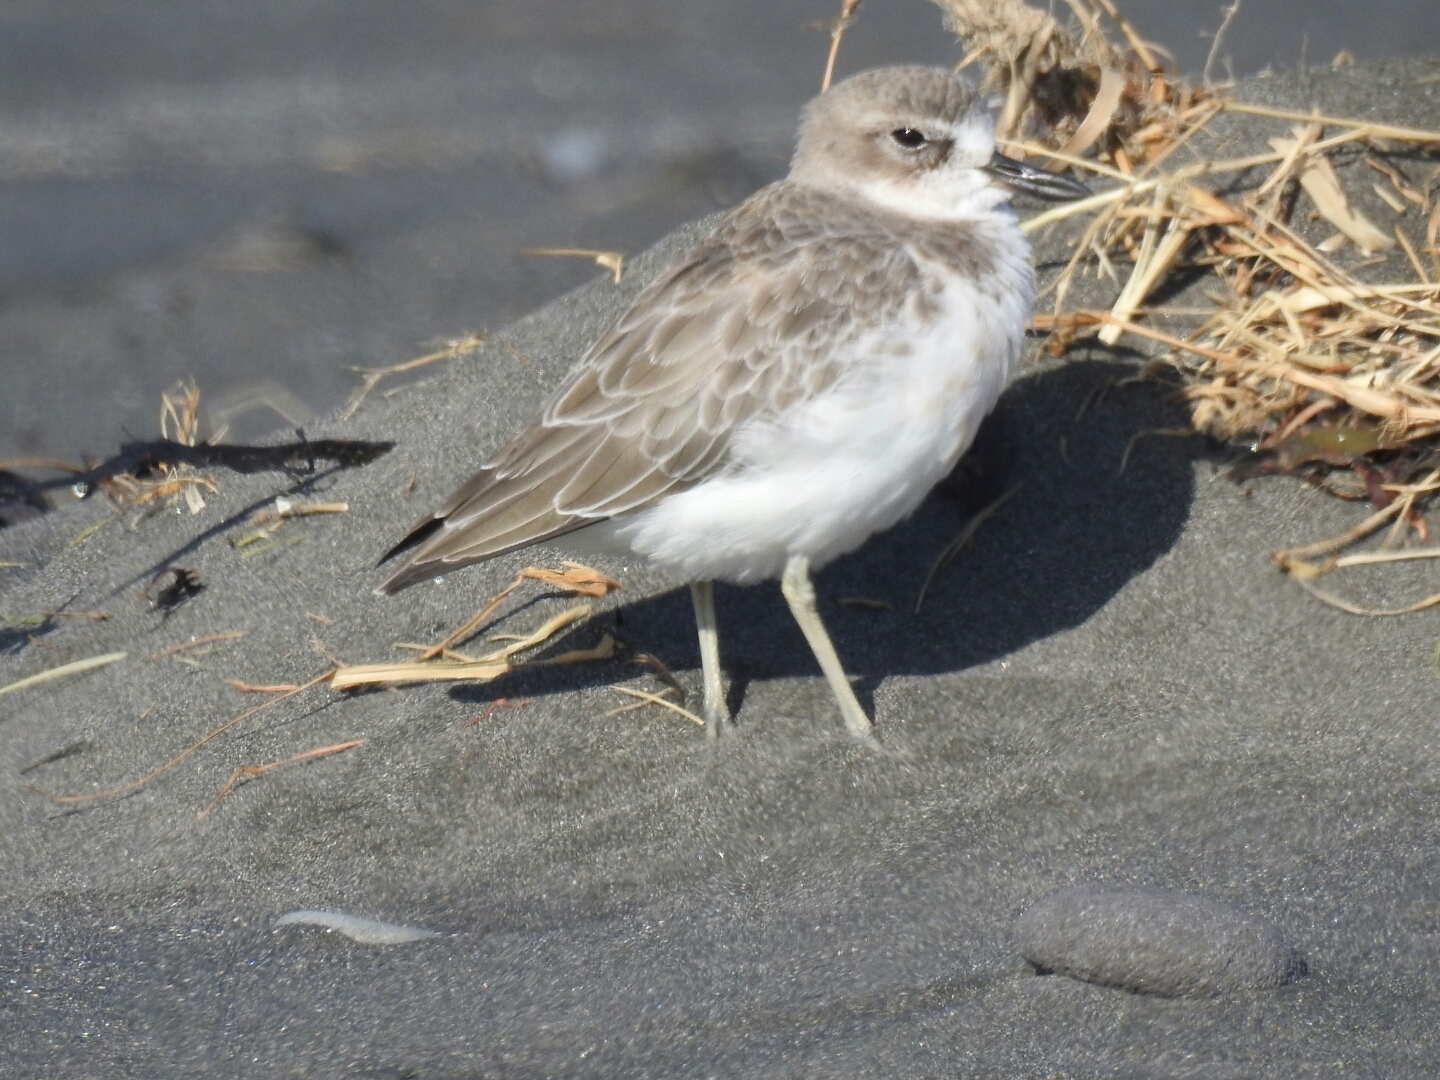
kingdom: Animalia
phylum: Chordata
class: Aves
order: Charadriiformes
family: Charadriidae
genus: Anarhynchus
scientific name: Anarhynchus
